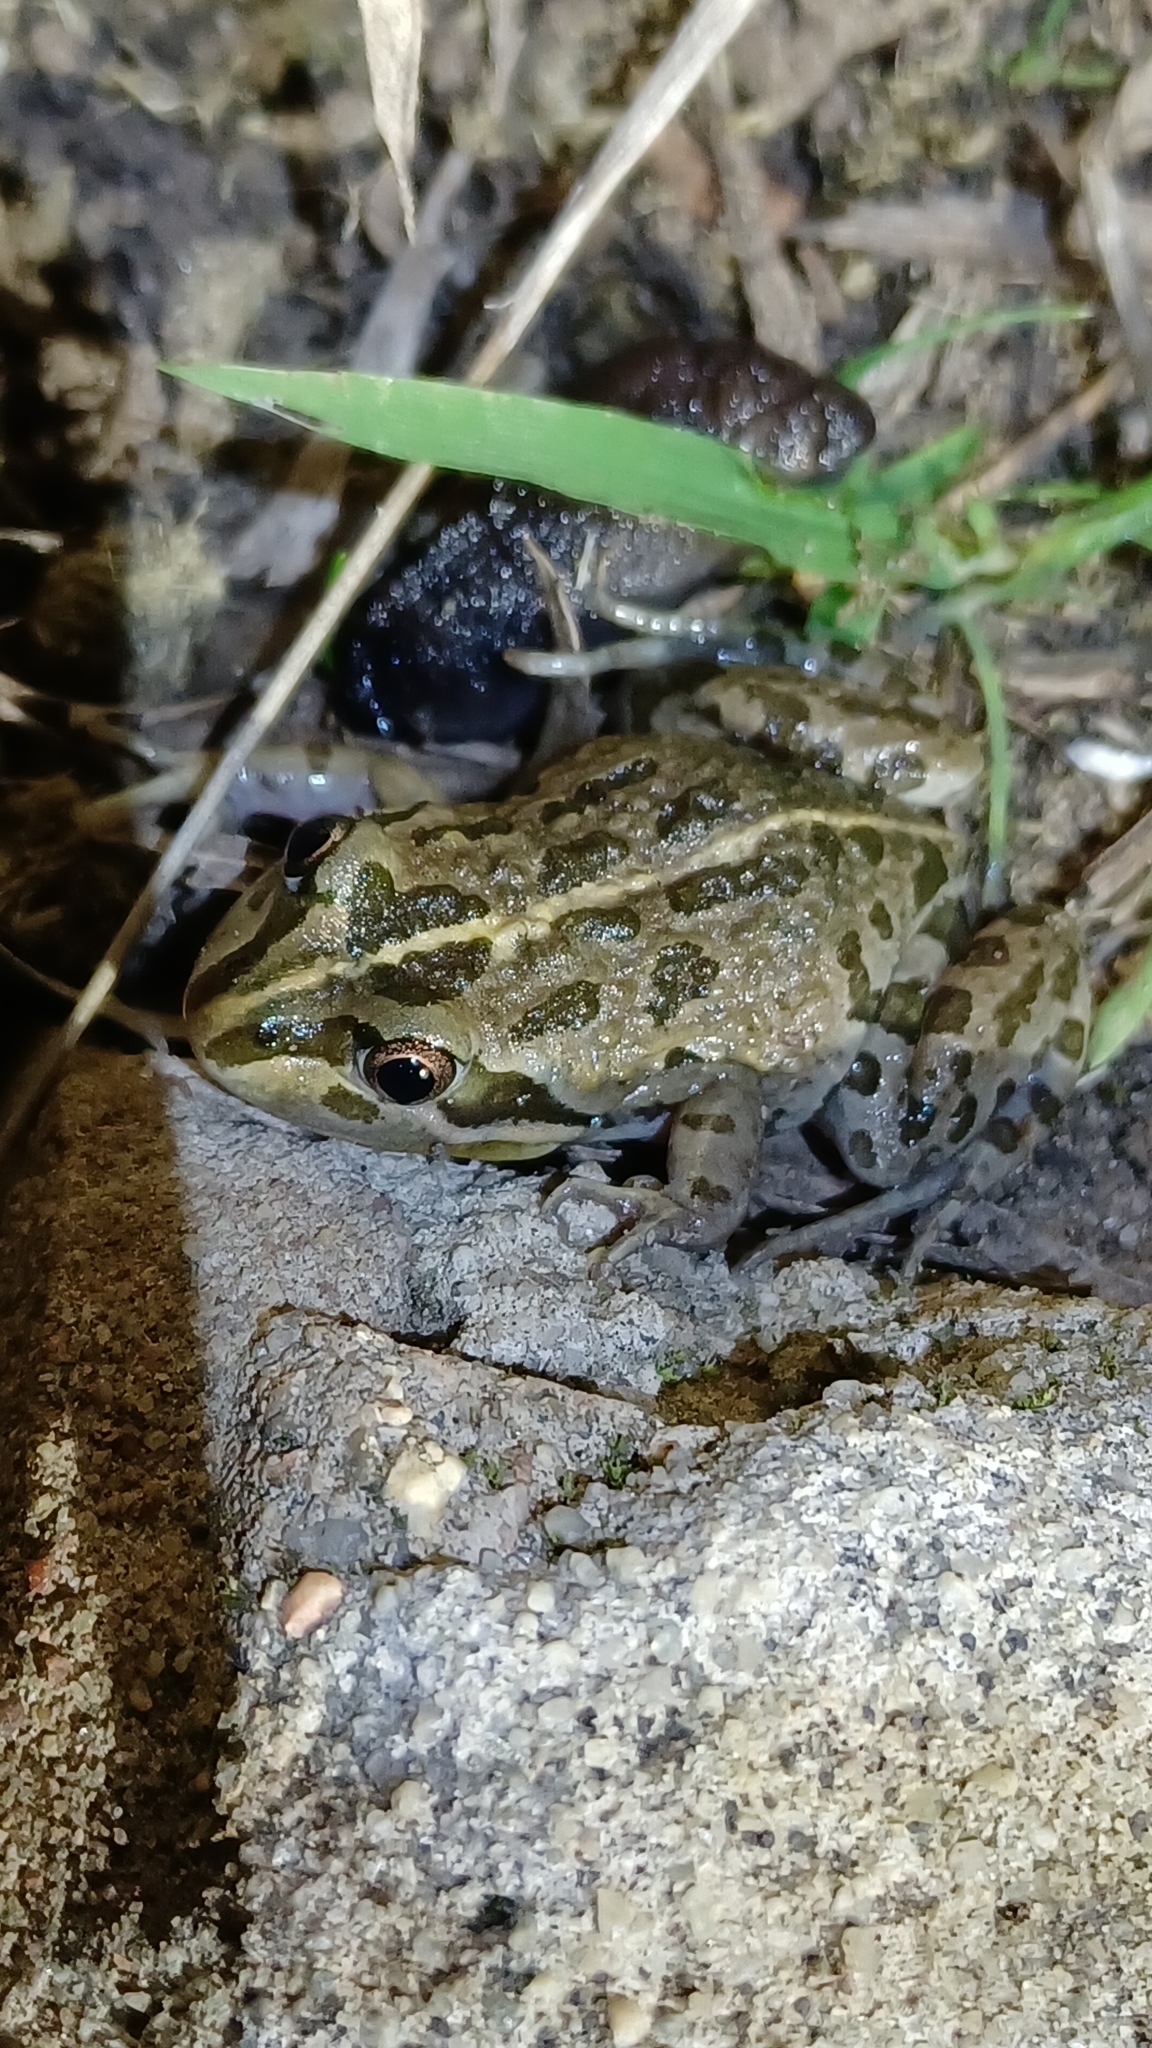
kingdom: Animalia
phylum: Chordata
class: Amphibia
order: Anura
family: Limnodynastidae
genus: Limnodynastes
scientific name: Limnodynastes tasmaniensis
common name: Spotted marsh frog
